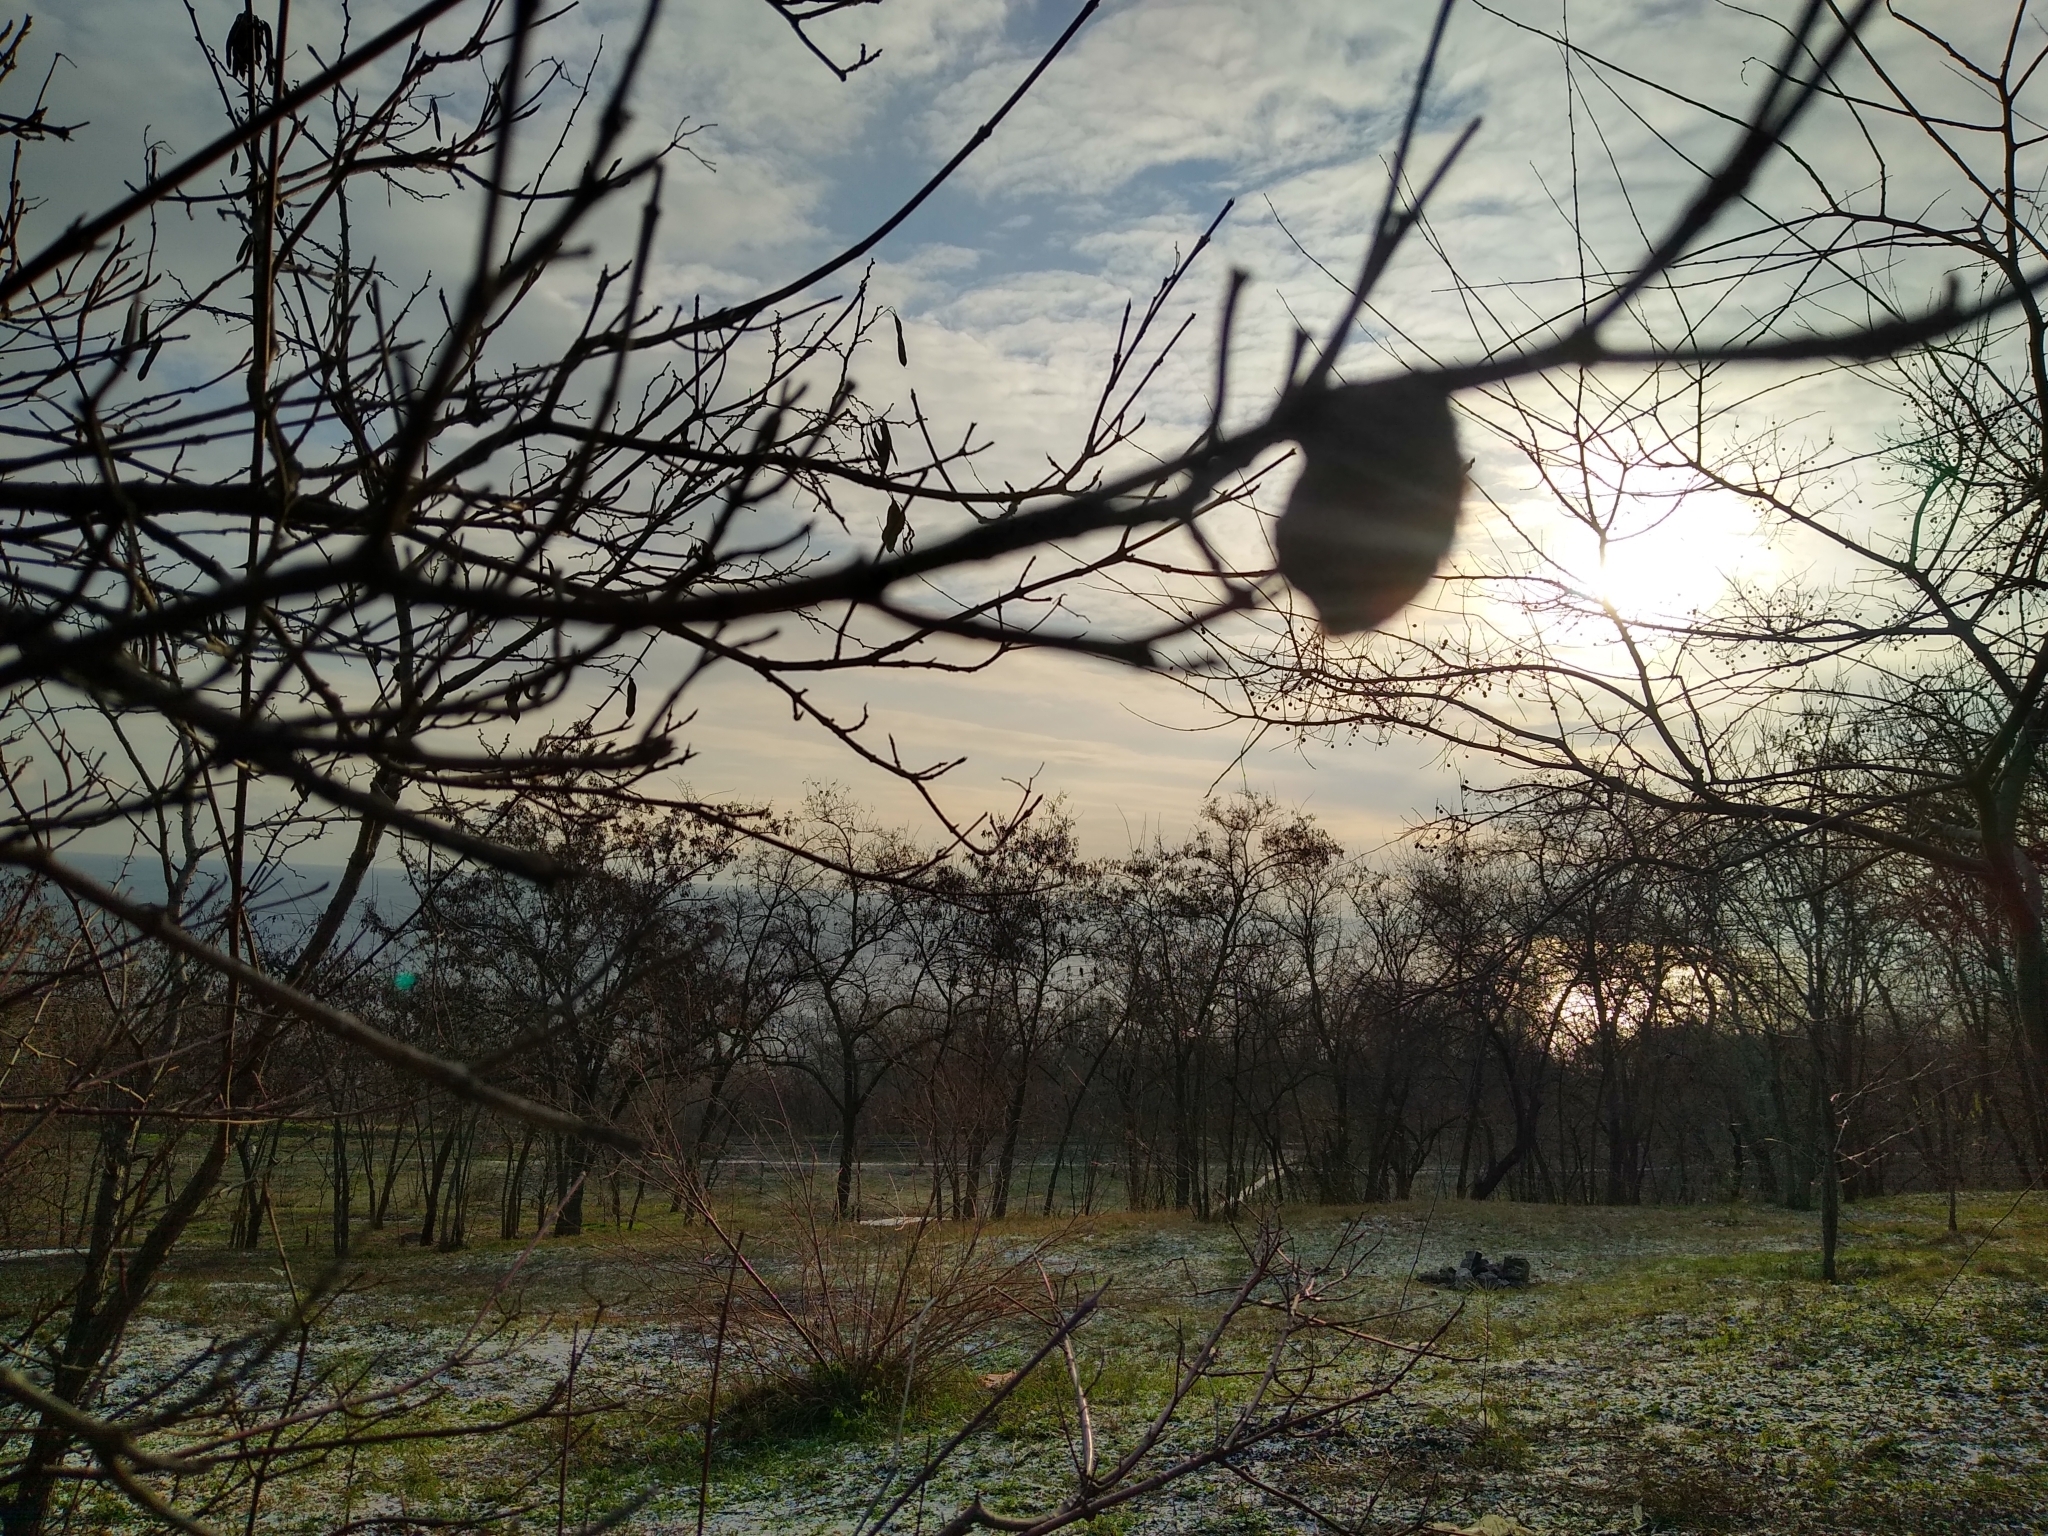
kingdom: Animalia
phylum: Arthropoda
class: Insecta
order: Mantodea
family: Mantidae
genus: Hierodula
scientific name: Hierodula transcaucasica
